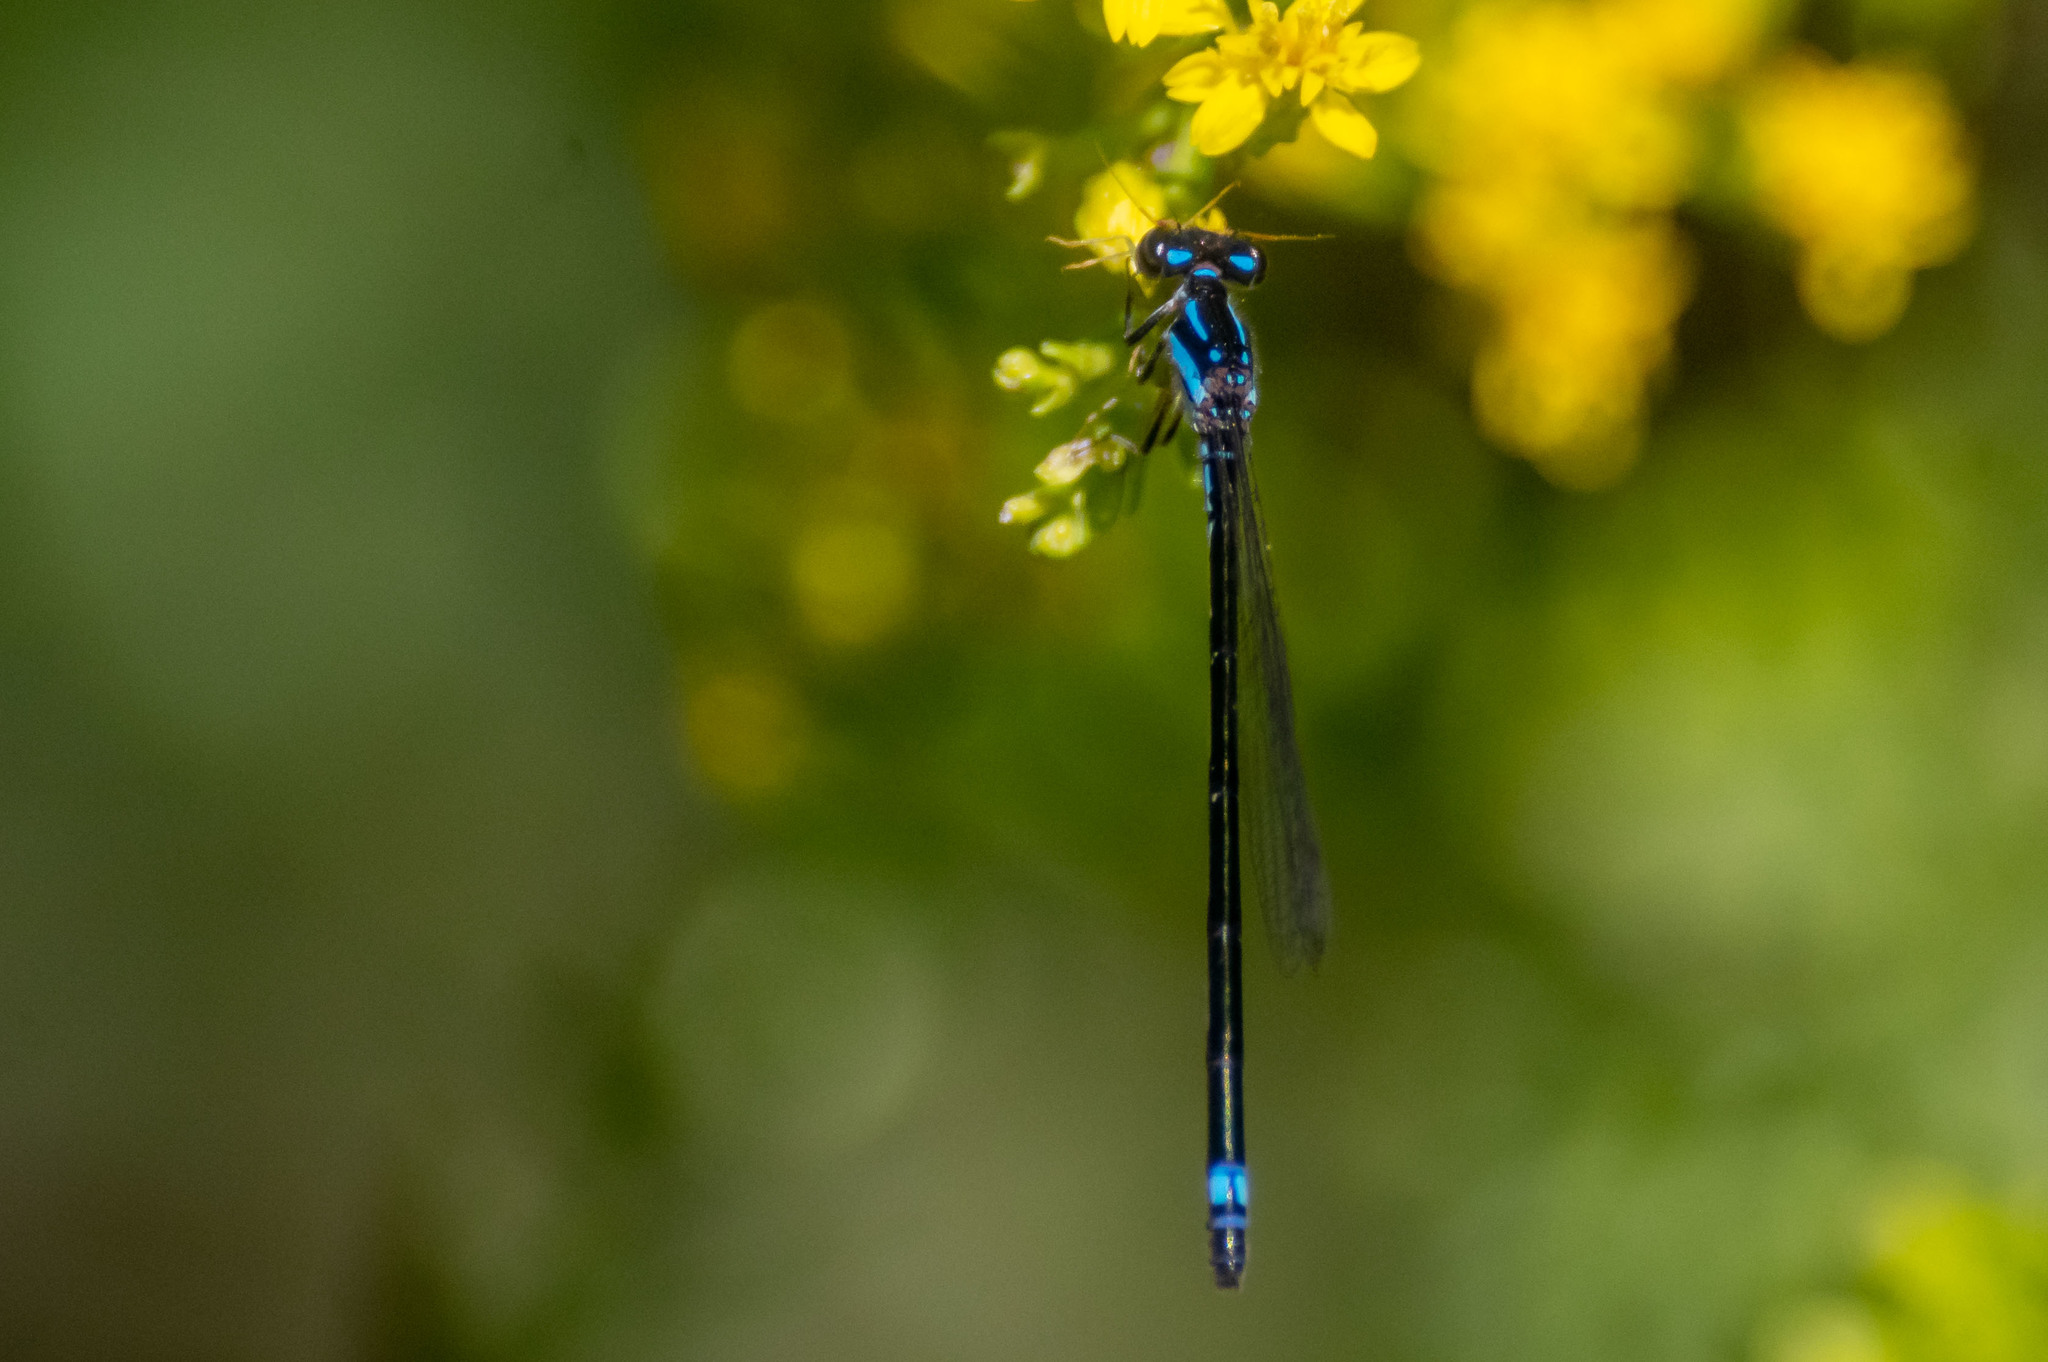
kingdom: Animalia
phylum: Arthropoda
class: Insecta
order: Odonata
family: Coenagrionidae
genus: Enallagma
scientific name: Enallagma geminatum
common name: Skimming bluet
